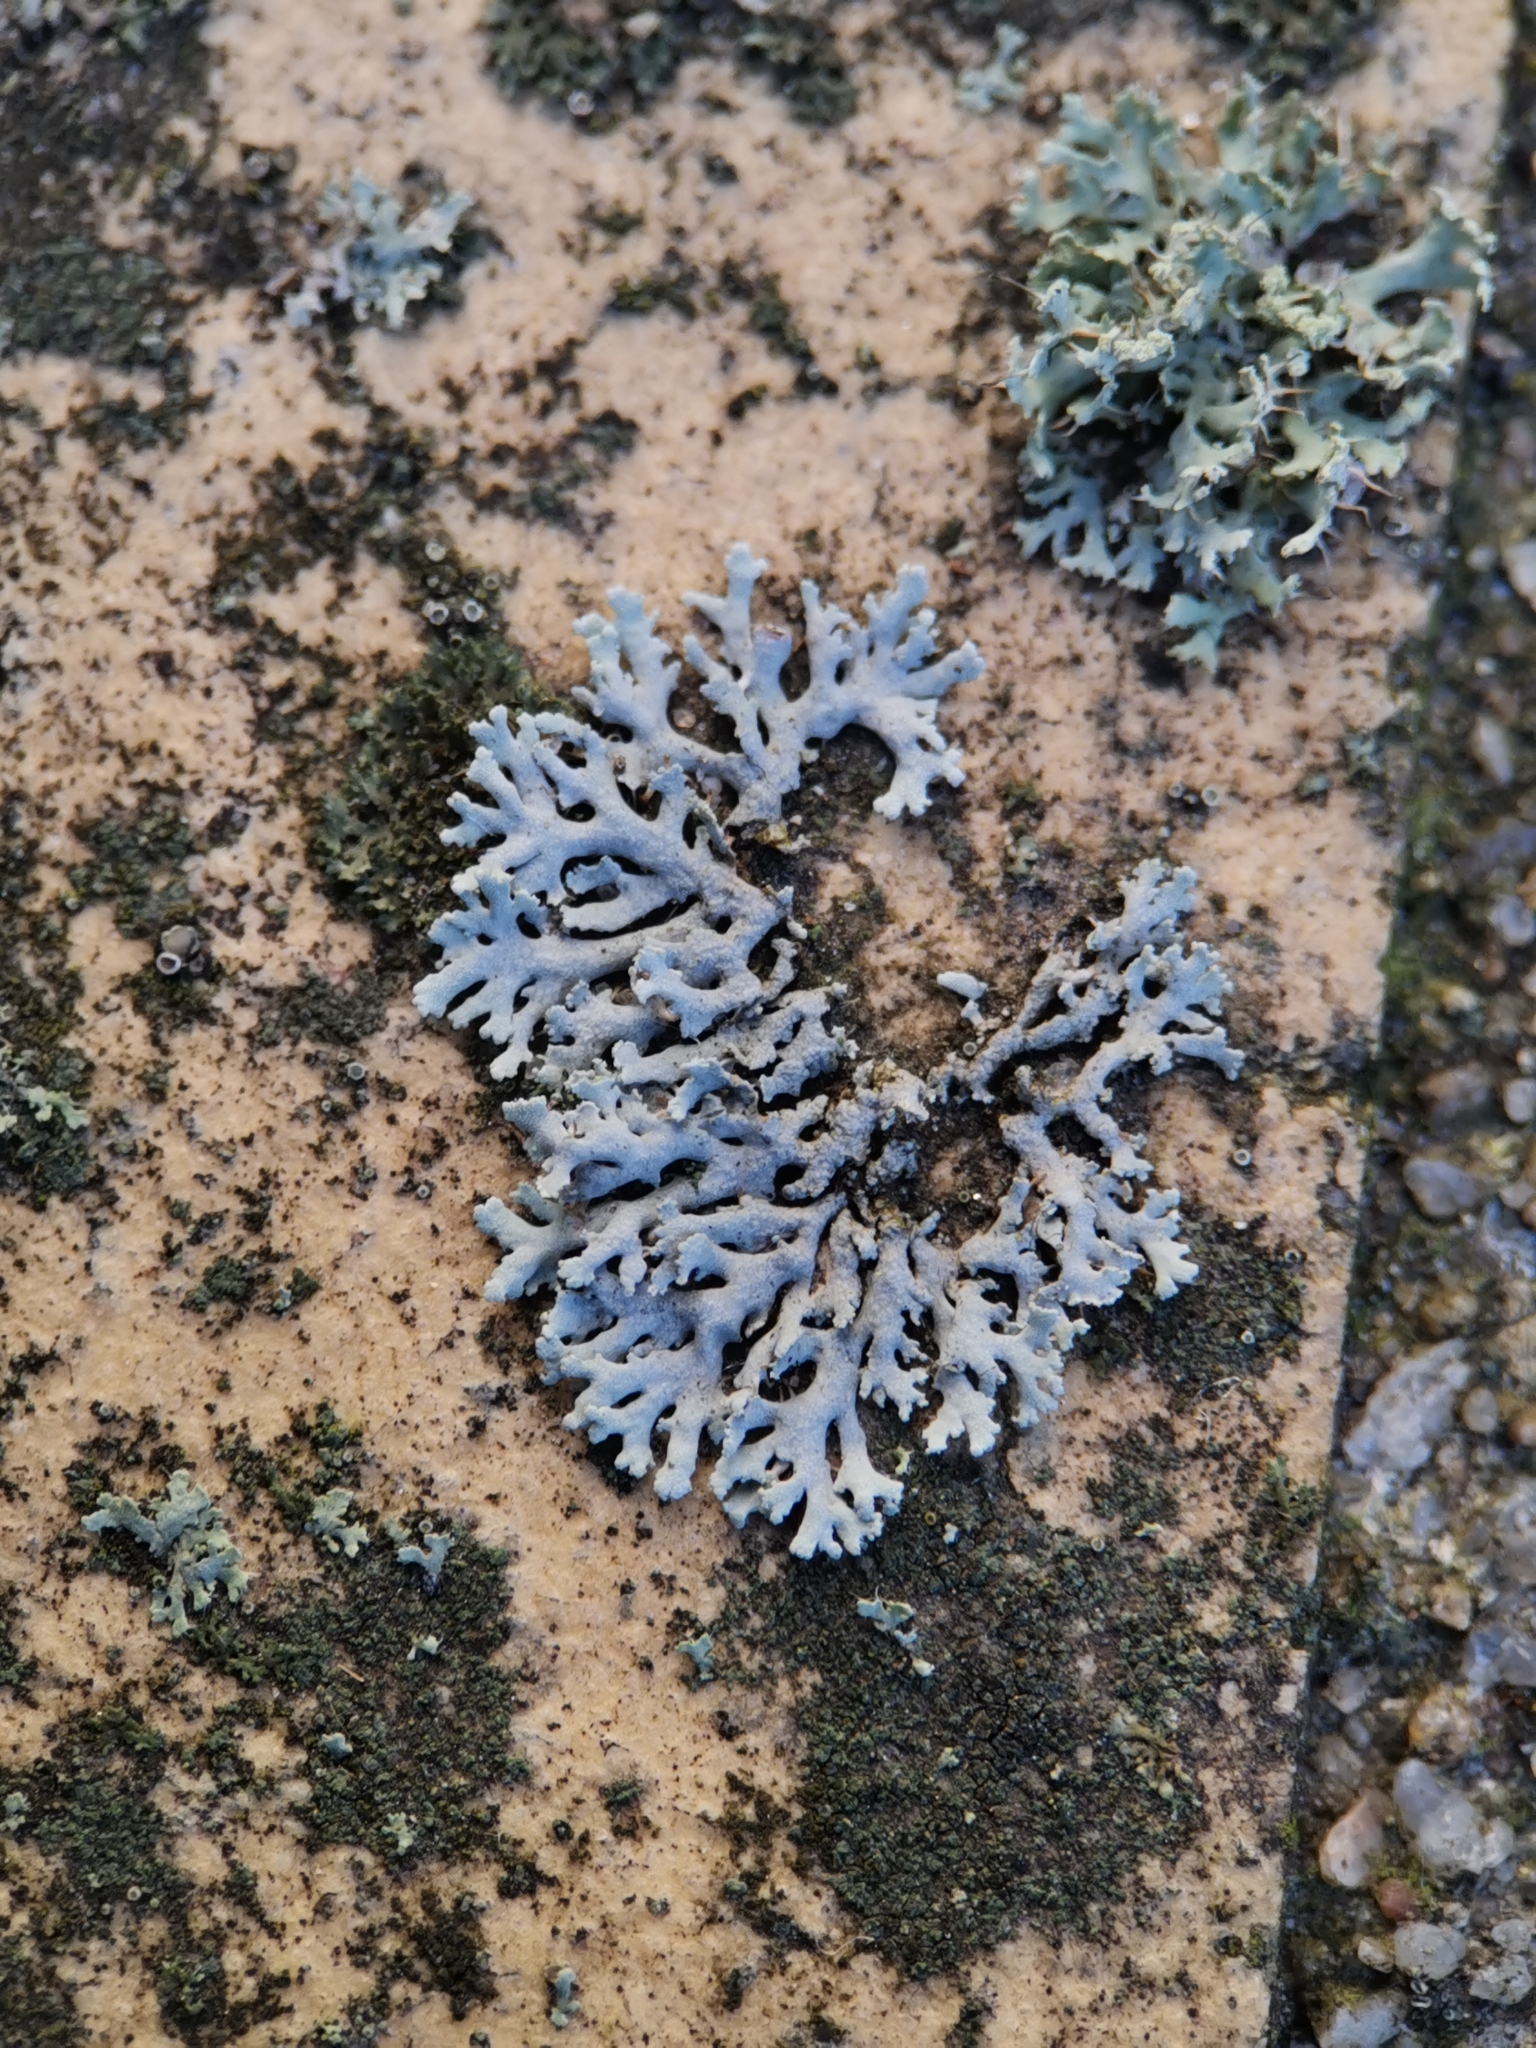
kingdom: Fungi
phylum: Ascomycota
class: Lecanoromycetes
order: Caliciales
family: Physciaceae
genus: Physcia
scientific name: Physcia caesia
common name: Blue-gray rosette lichen
